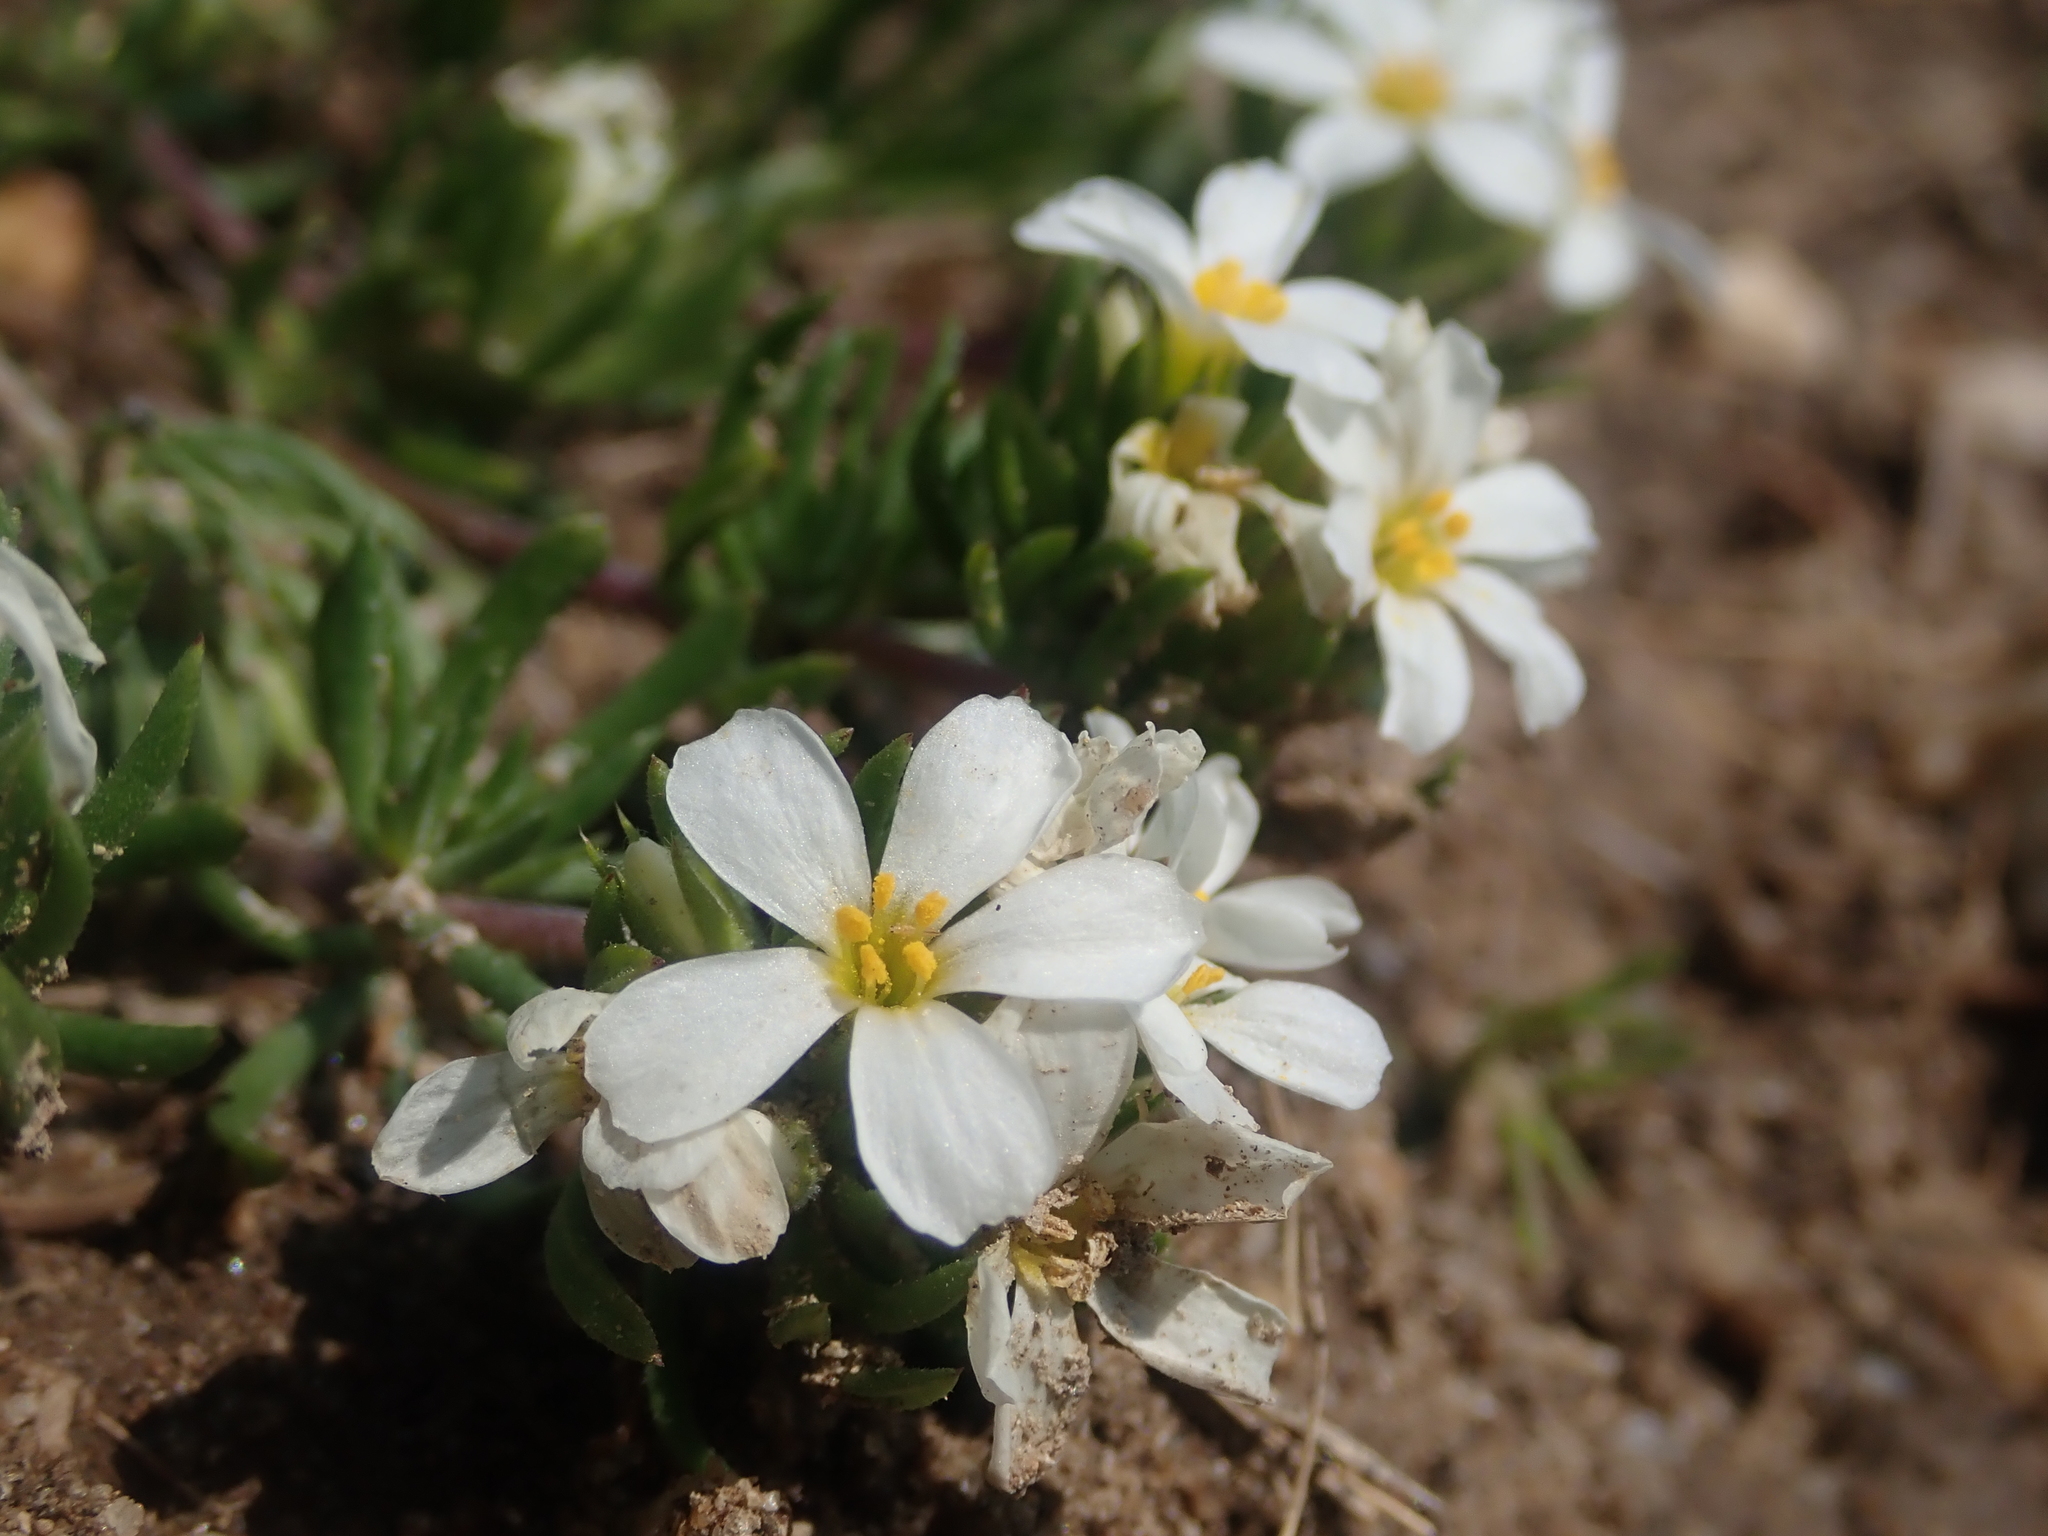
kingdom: Plantae
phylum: Tracheophyta
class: Magnoliopsida
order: Ericales
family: Polemoniaceae
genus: Leptosiphon
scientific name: Leptosiphon nuttallii
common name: Nuttall's linanthus
